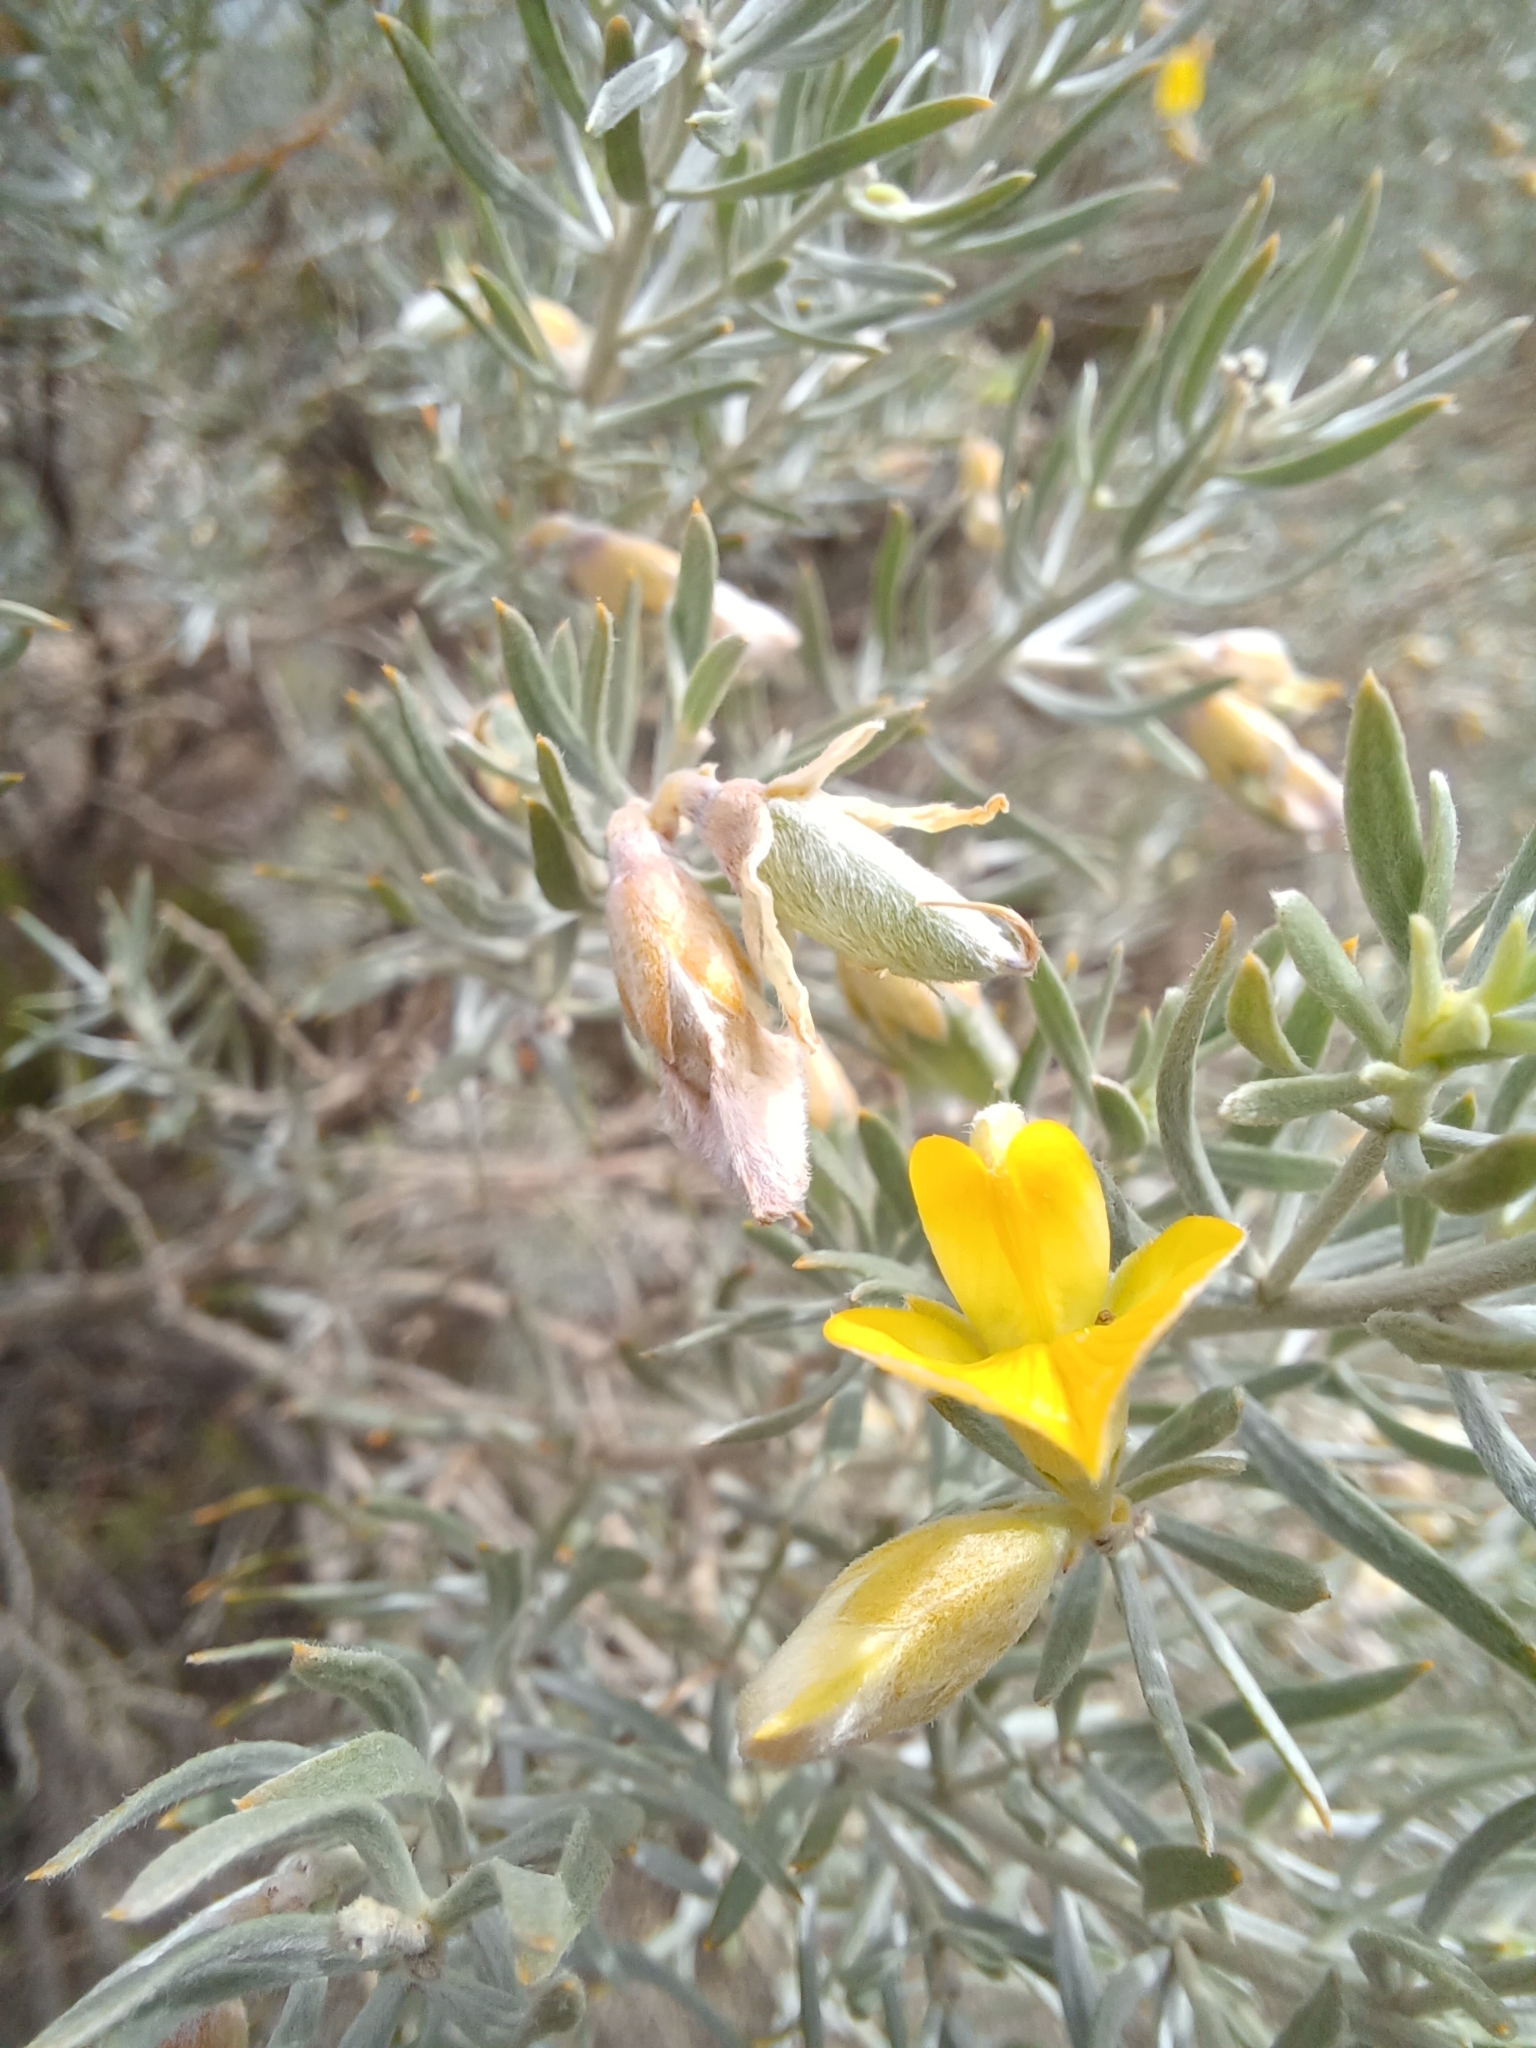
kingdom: Plantae
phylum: Tracheophyta
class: Magnoliopsida
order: Fabales
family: Fabaceae
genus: Aspalathus
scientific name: Aspalathus rugosa
